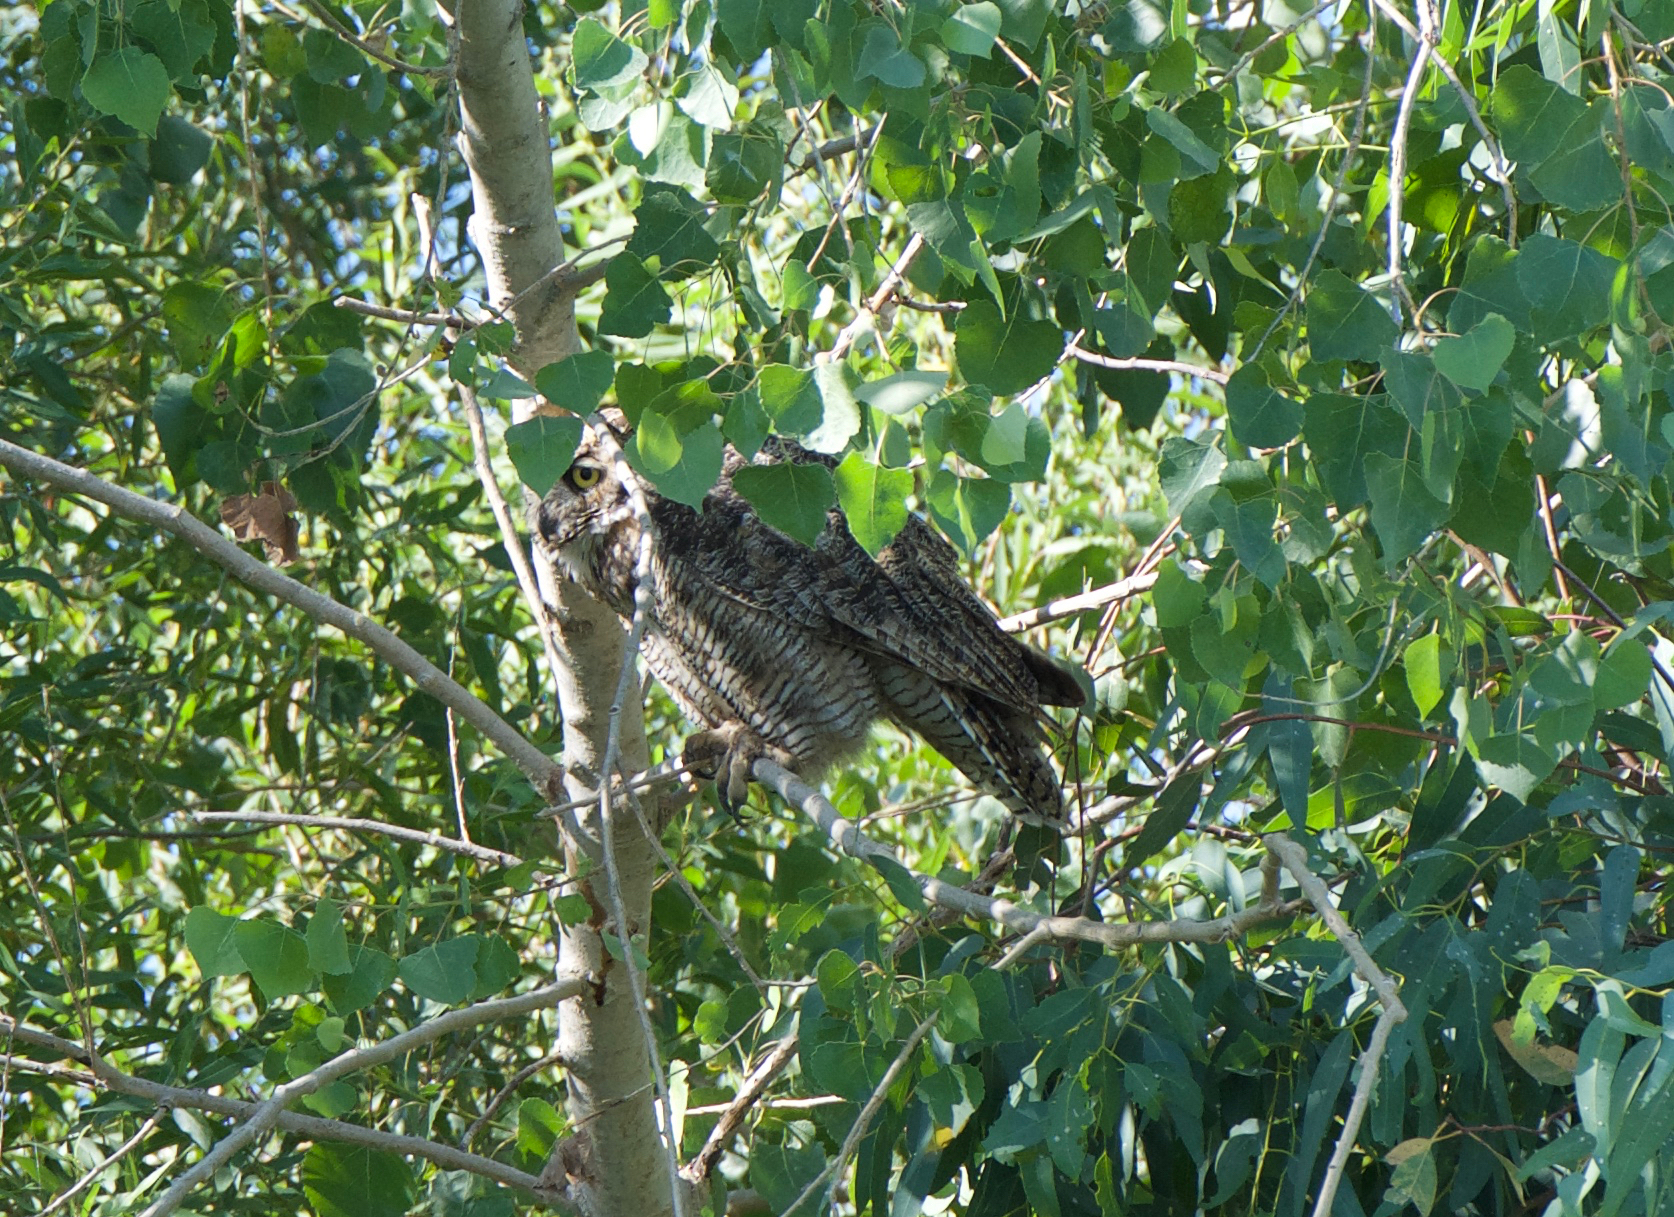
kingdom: Animalia
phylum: Chordata
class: Aves
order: Strigiformes
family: Strigidae
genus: Bubo
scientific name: Bubo virginianus
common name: Great horned owl
